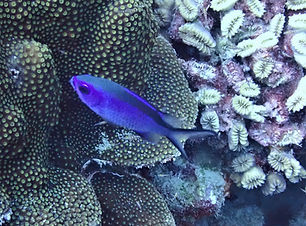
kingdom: Animalia
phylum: Chordata
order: Perciformes
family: Pomacentridae
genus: Chromis
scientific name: Chromis cyanea
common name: Blue chromis
